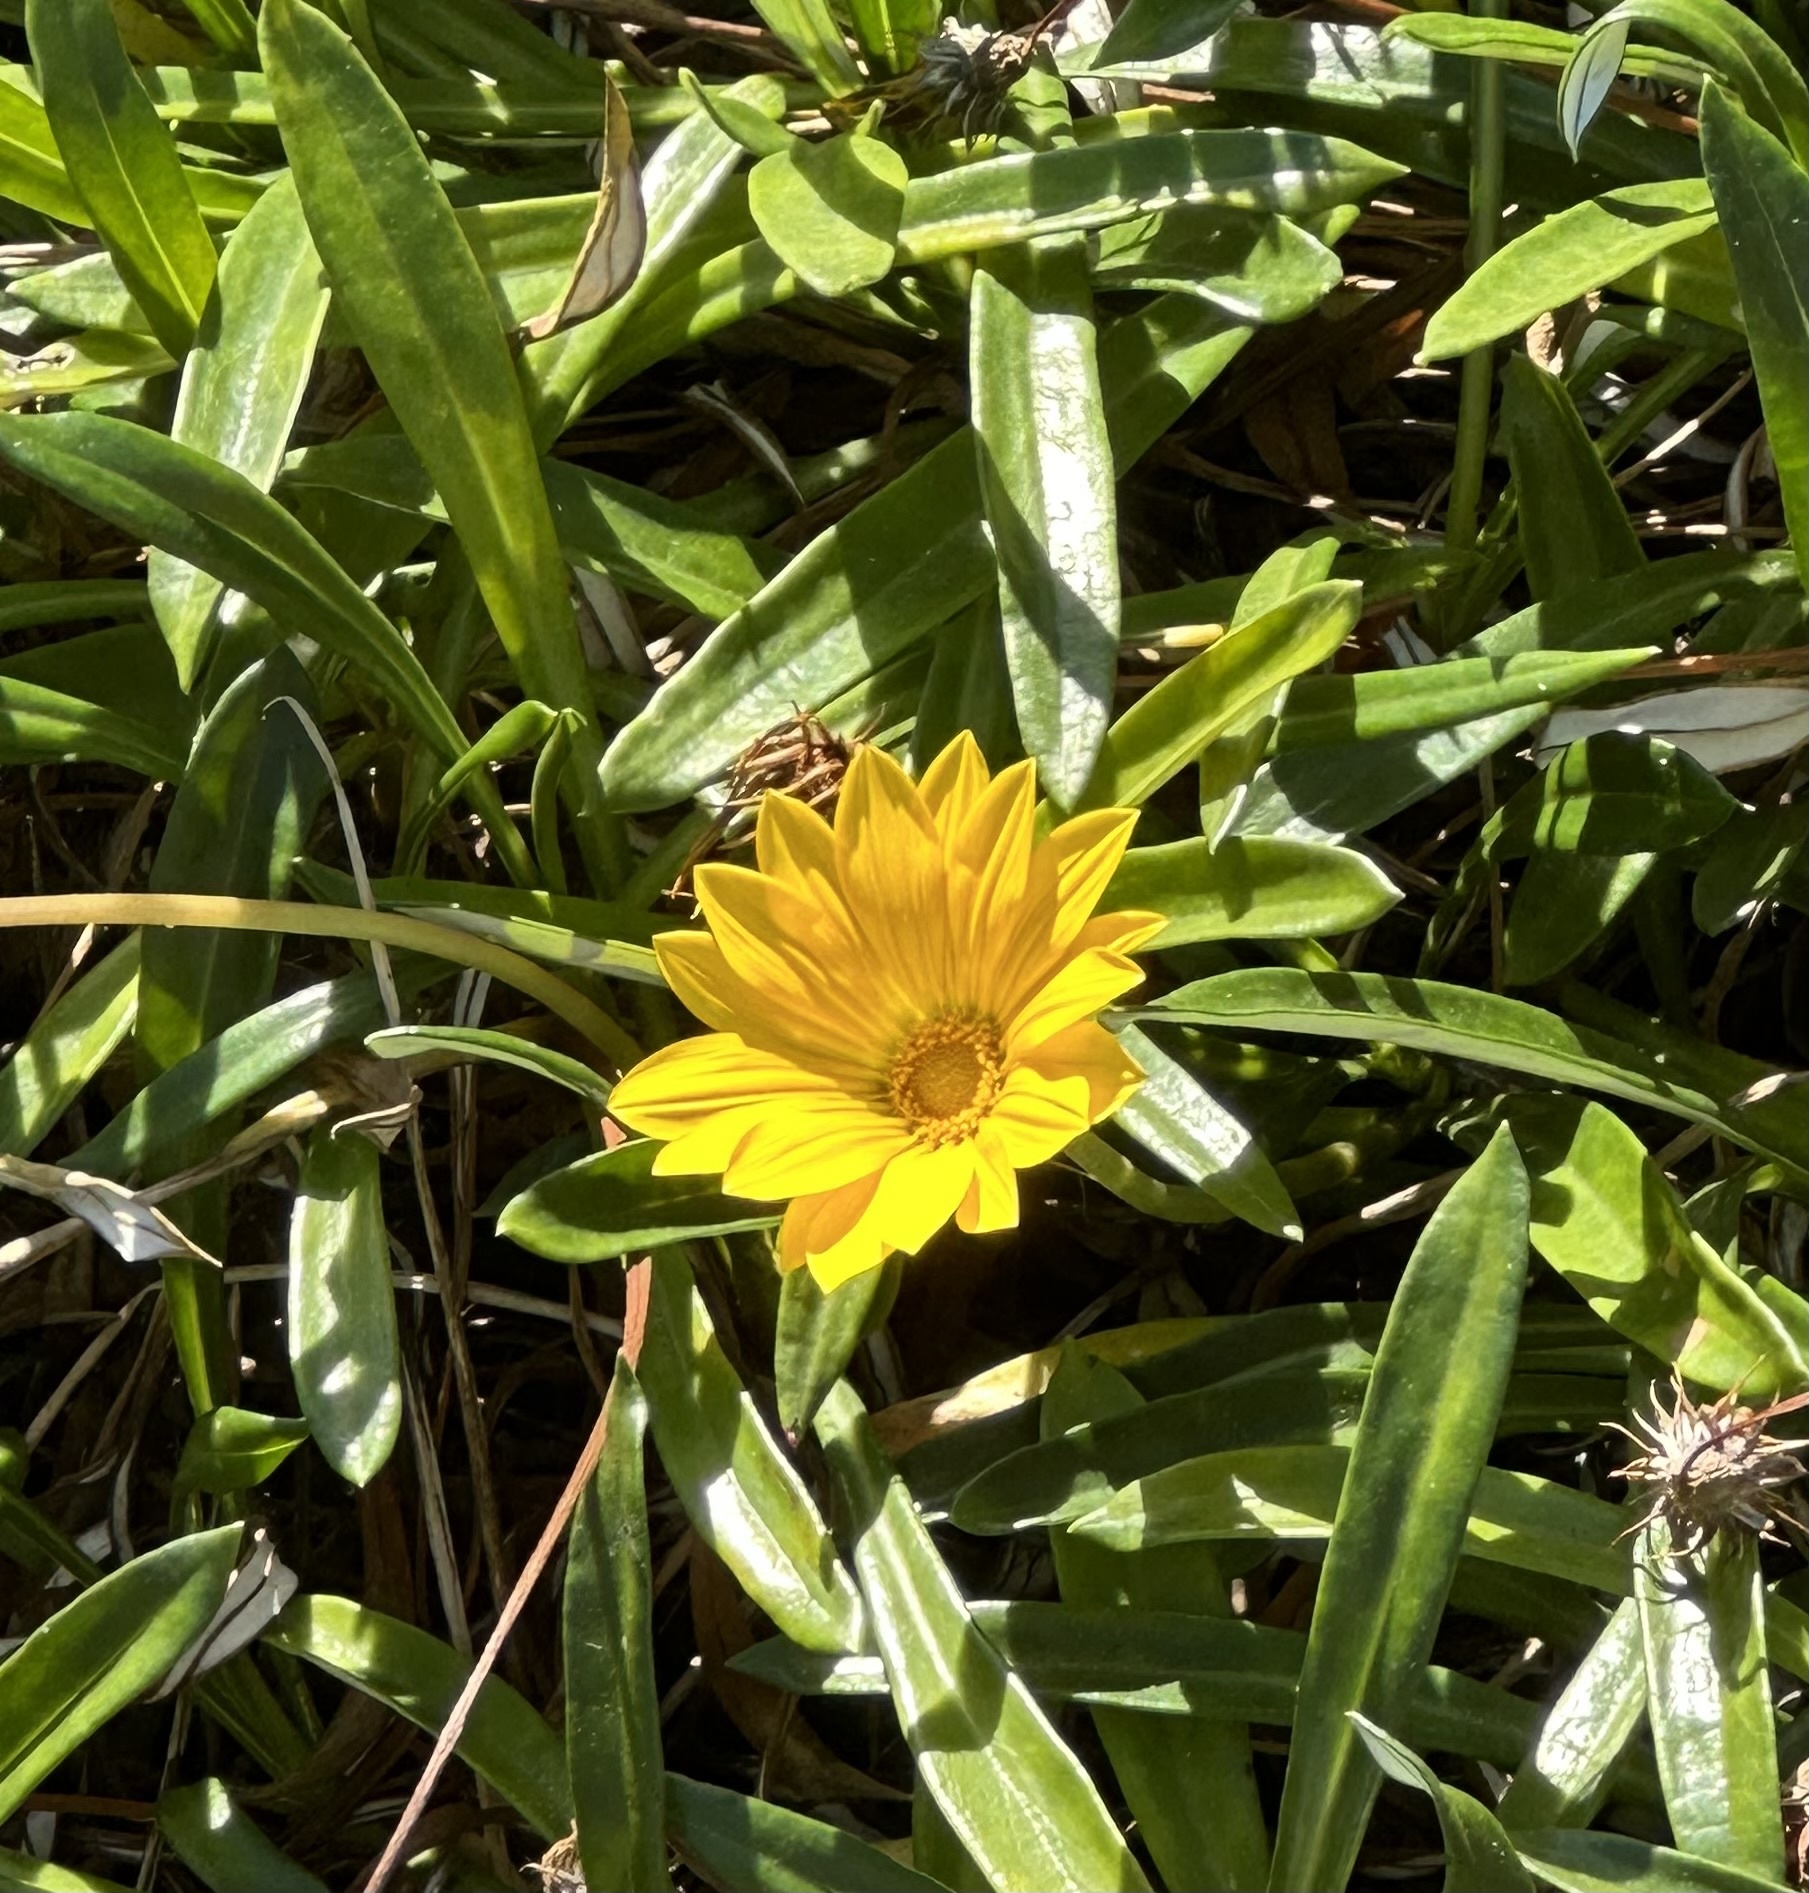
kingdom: Plantae
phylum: Tracheophyta
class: Magnoliopsida
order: Asterales
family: Asteraceae
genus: Gazania
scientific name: Gazania splendens
